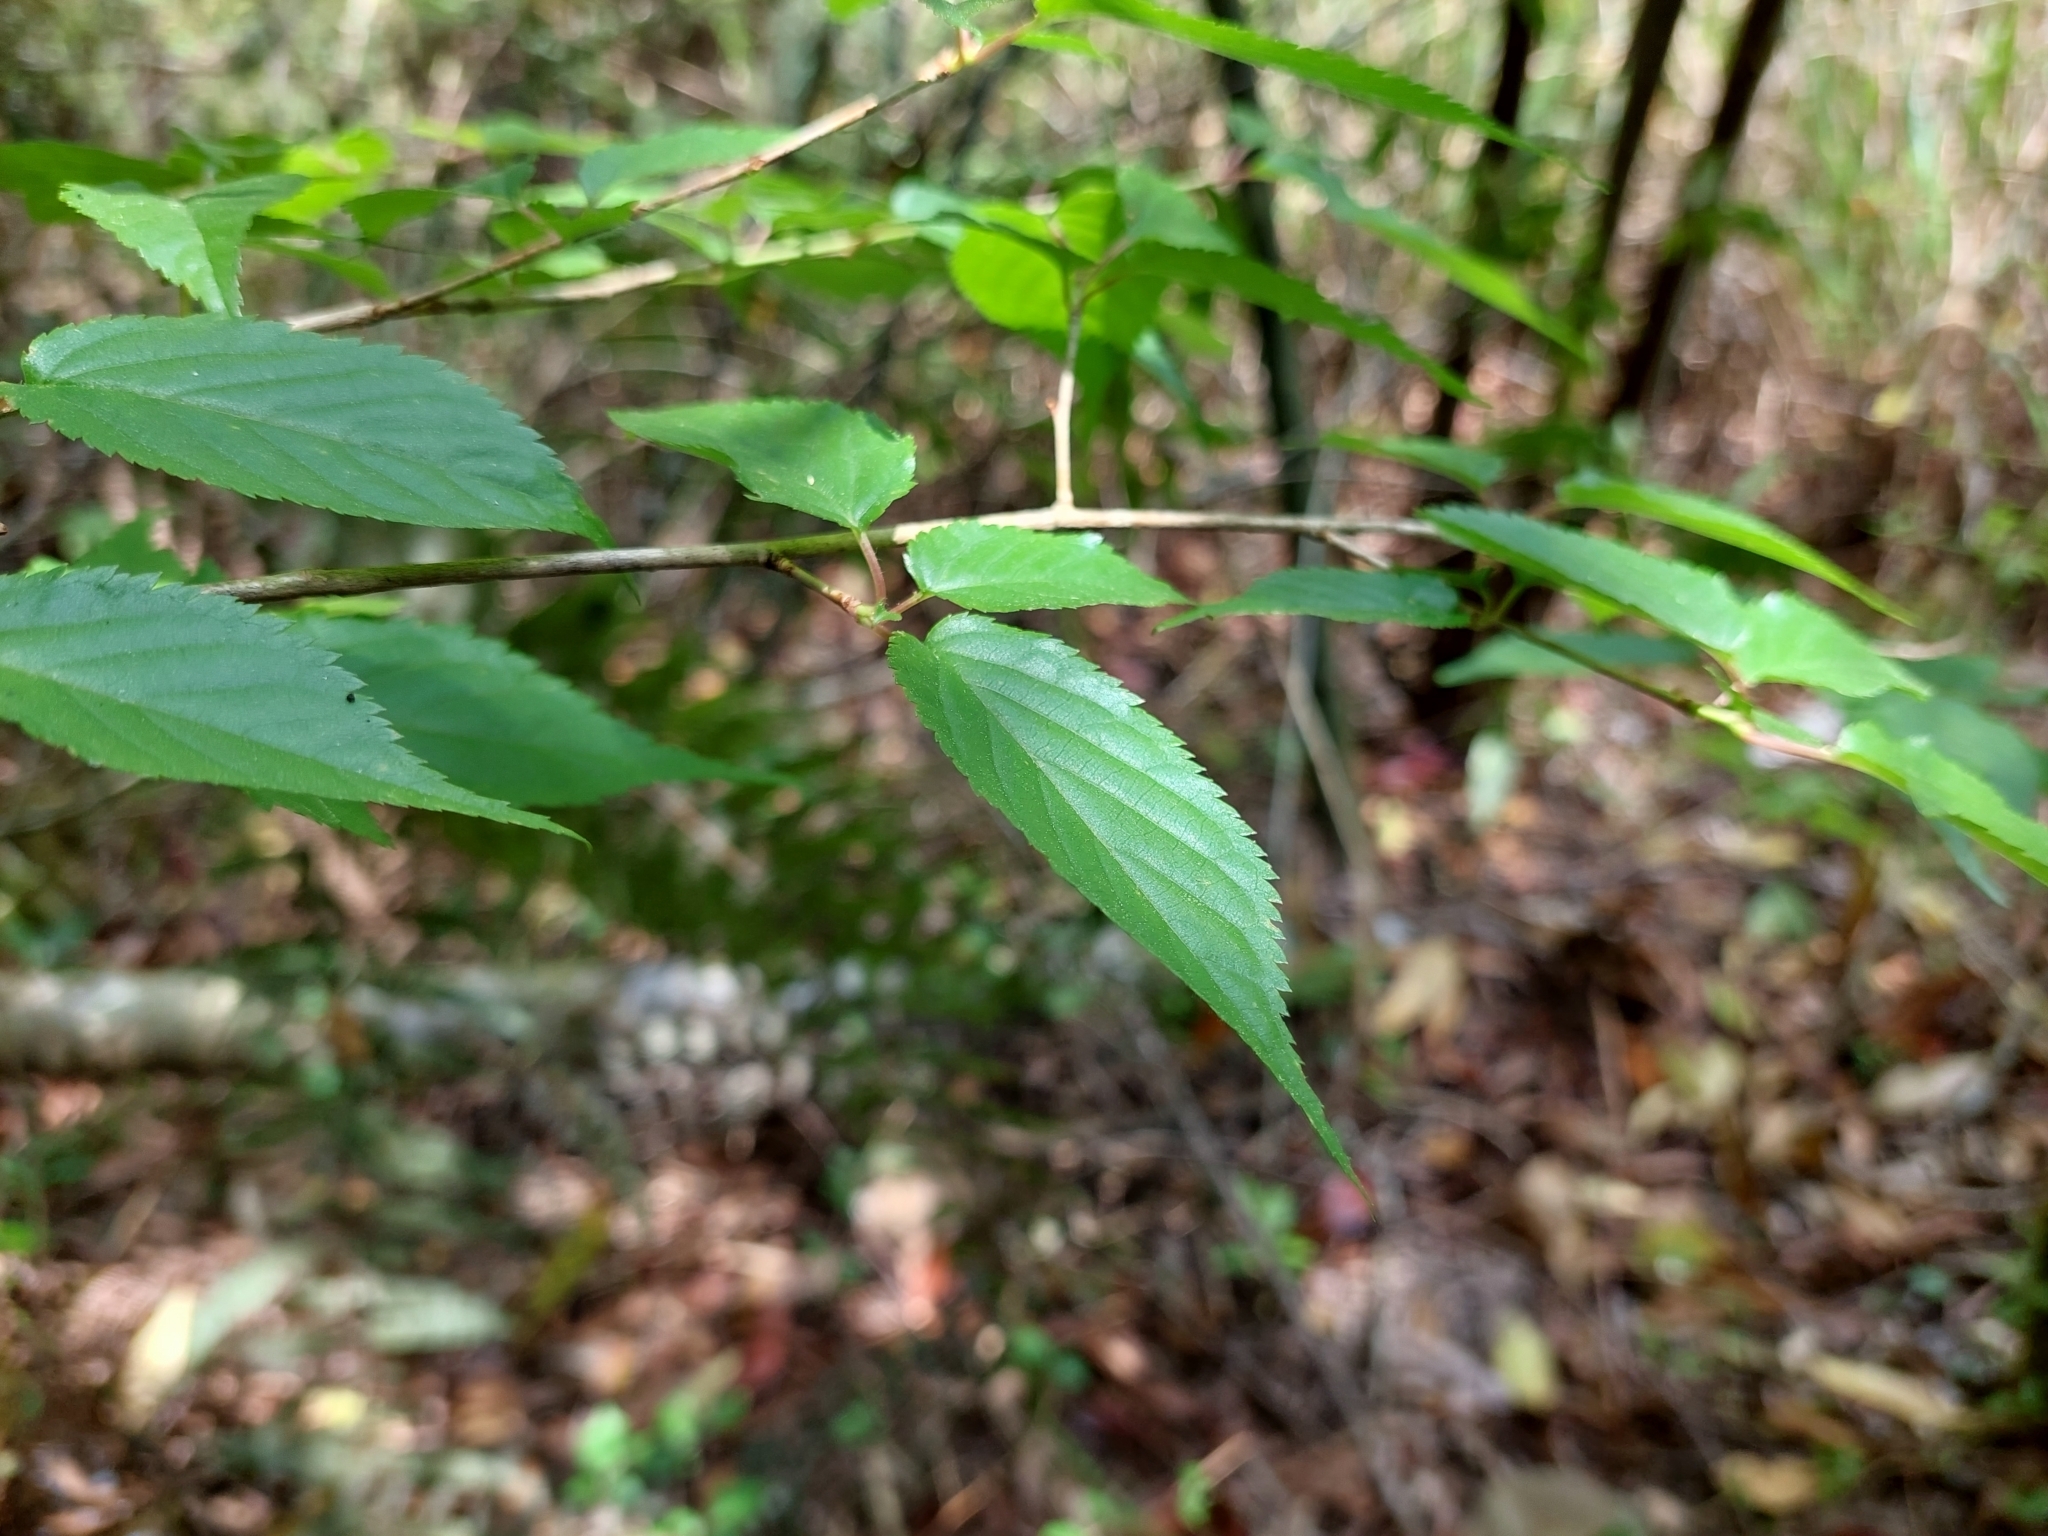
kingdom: Plantae
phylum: Tracheophyta
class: Magnoliopsida
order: Rosales
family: Rosaceae
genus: Prunus
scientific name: Prunus transarisanensis
